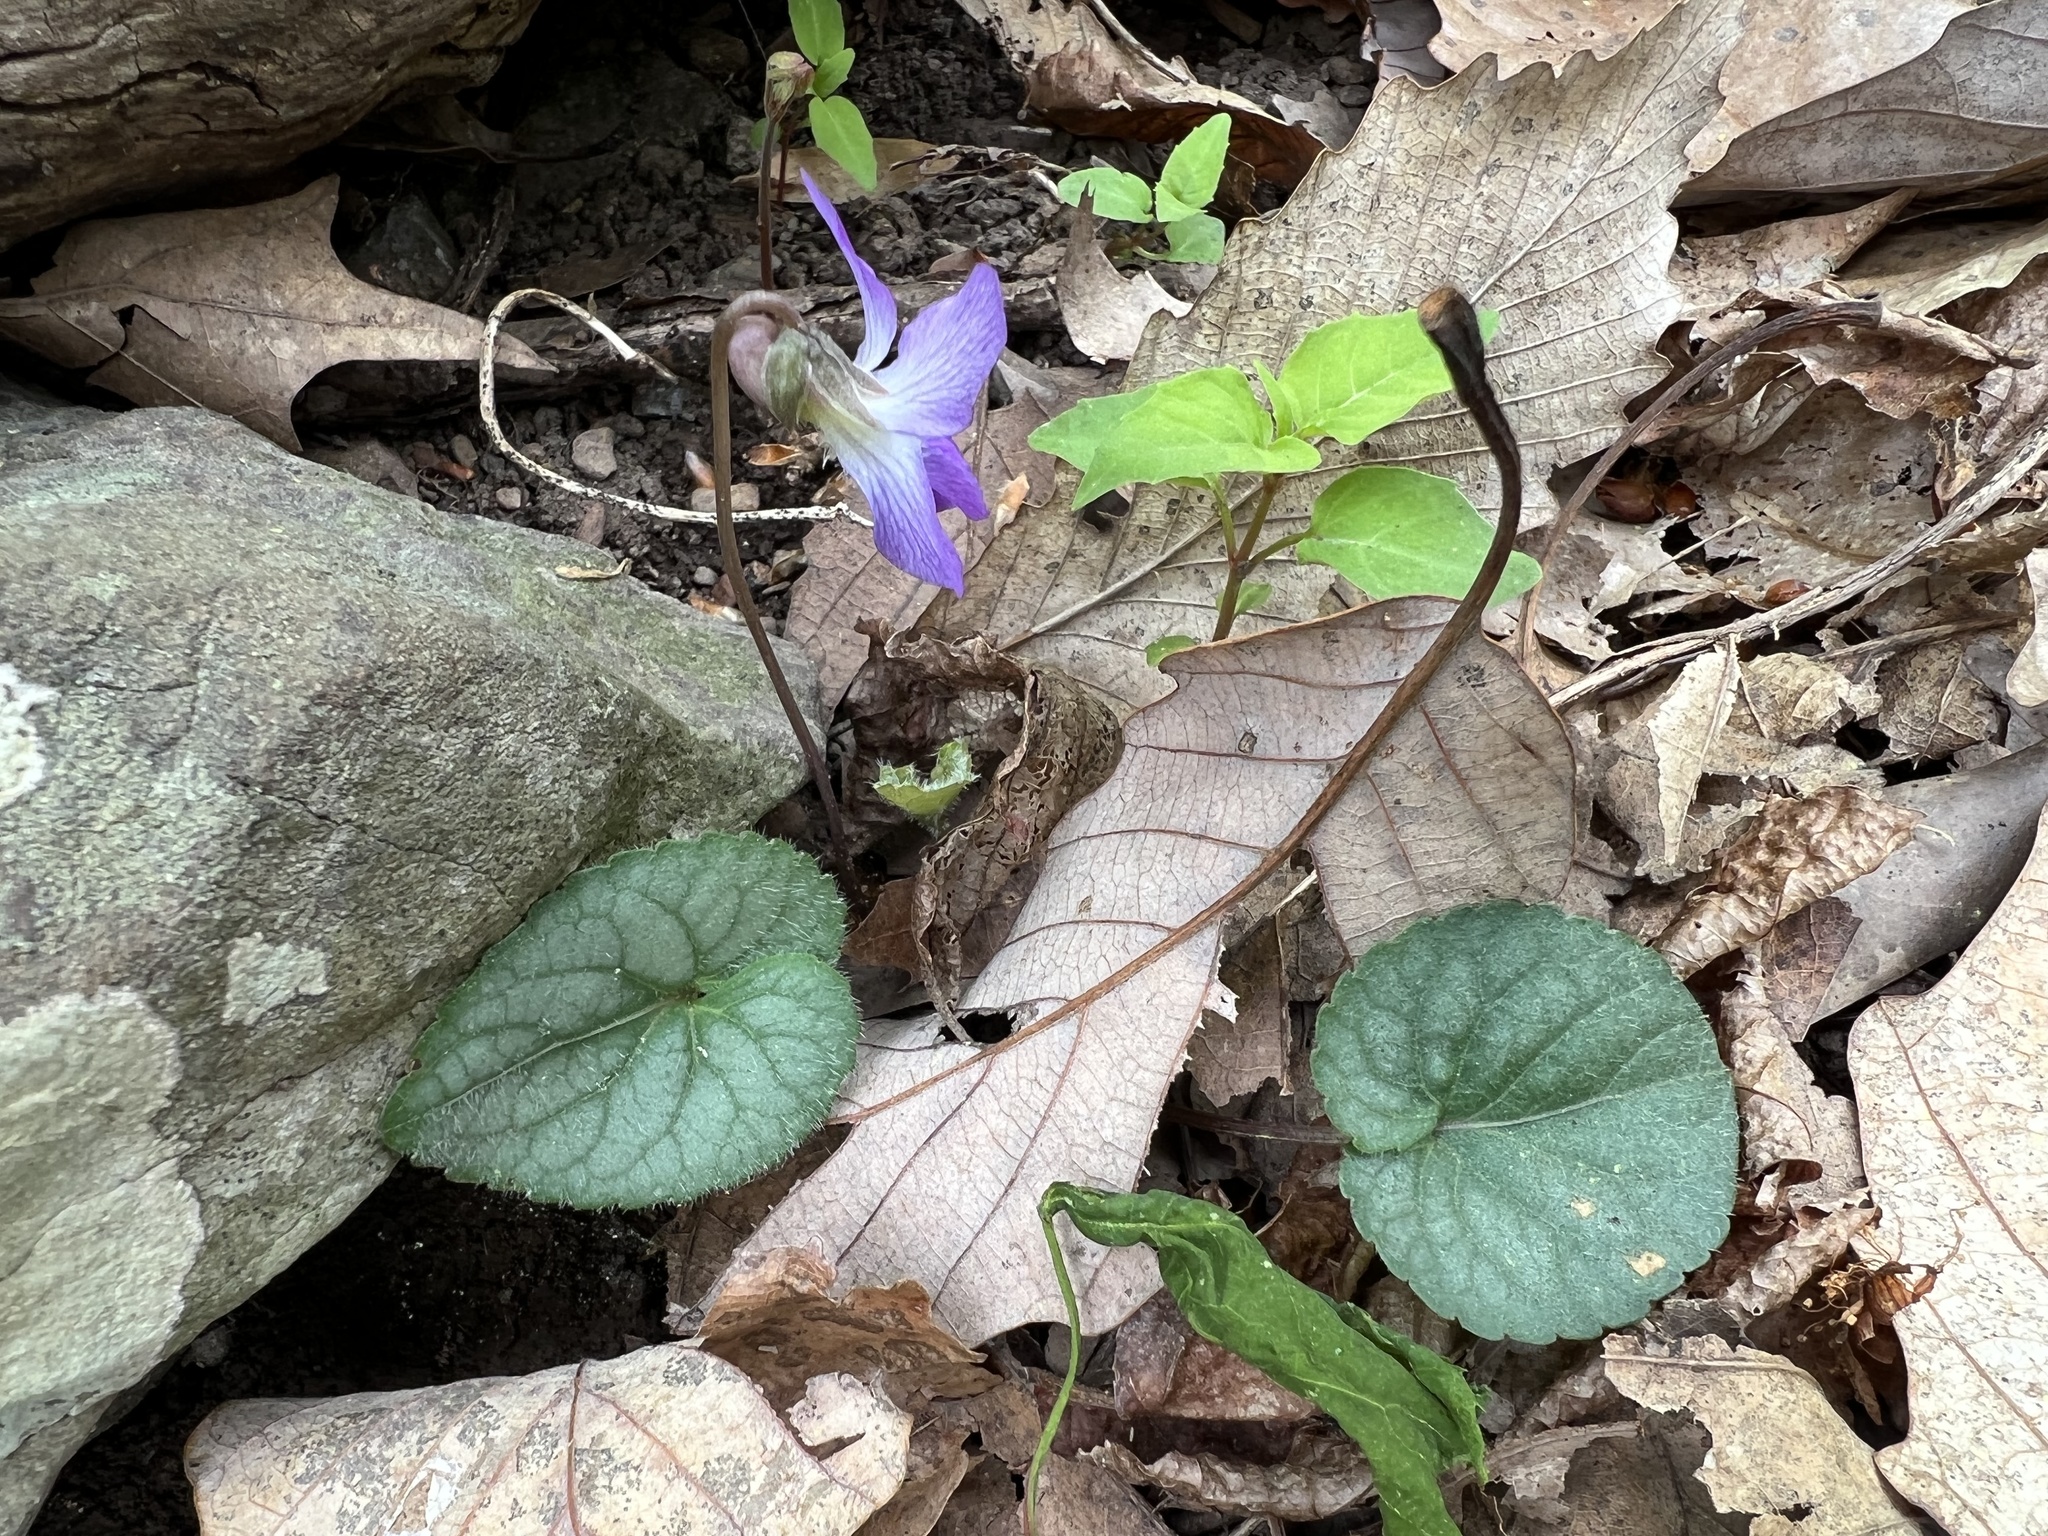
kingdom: Plantae
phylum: Tracheophyta
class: Magnoliopsida
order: Malpighiales
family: Violaceae
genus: Viola
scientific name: Viola hirsutula
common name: Southern wood violet
